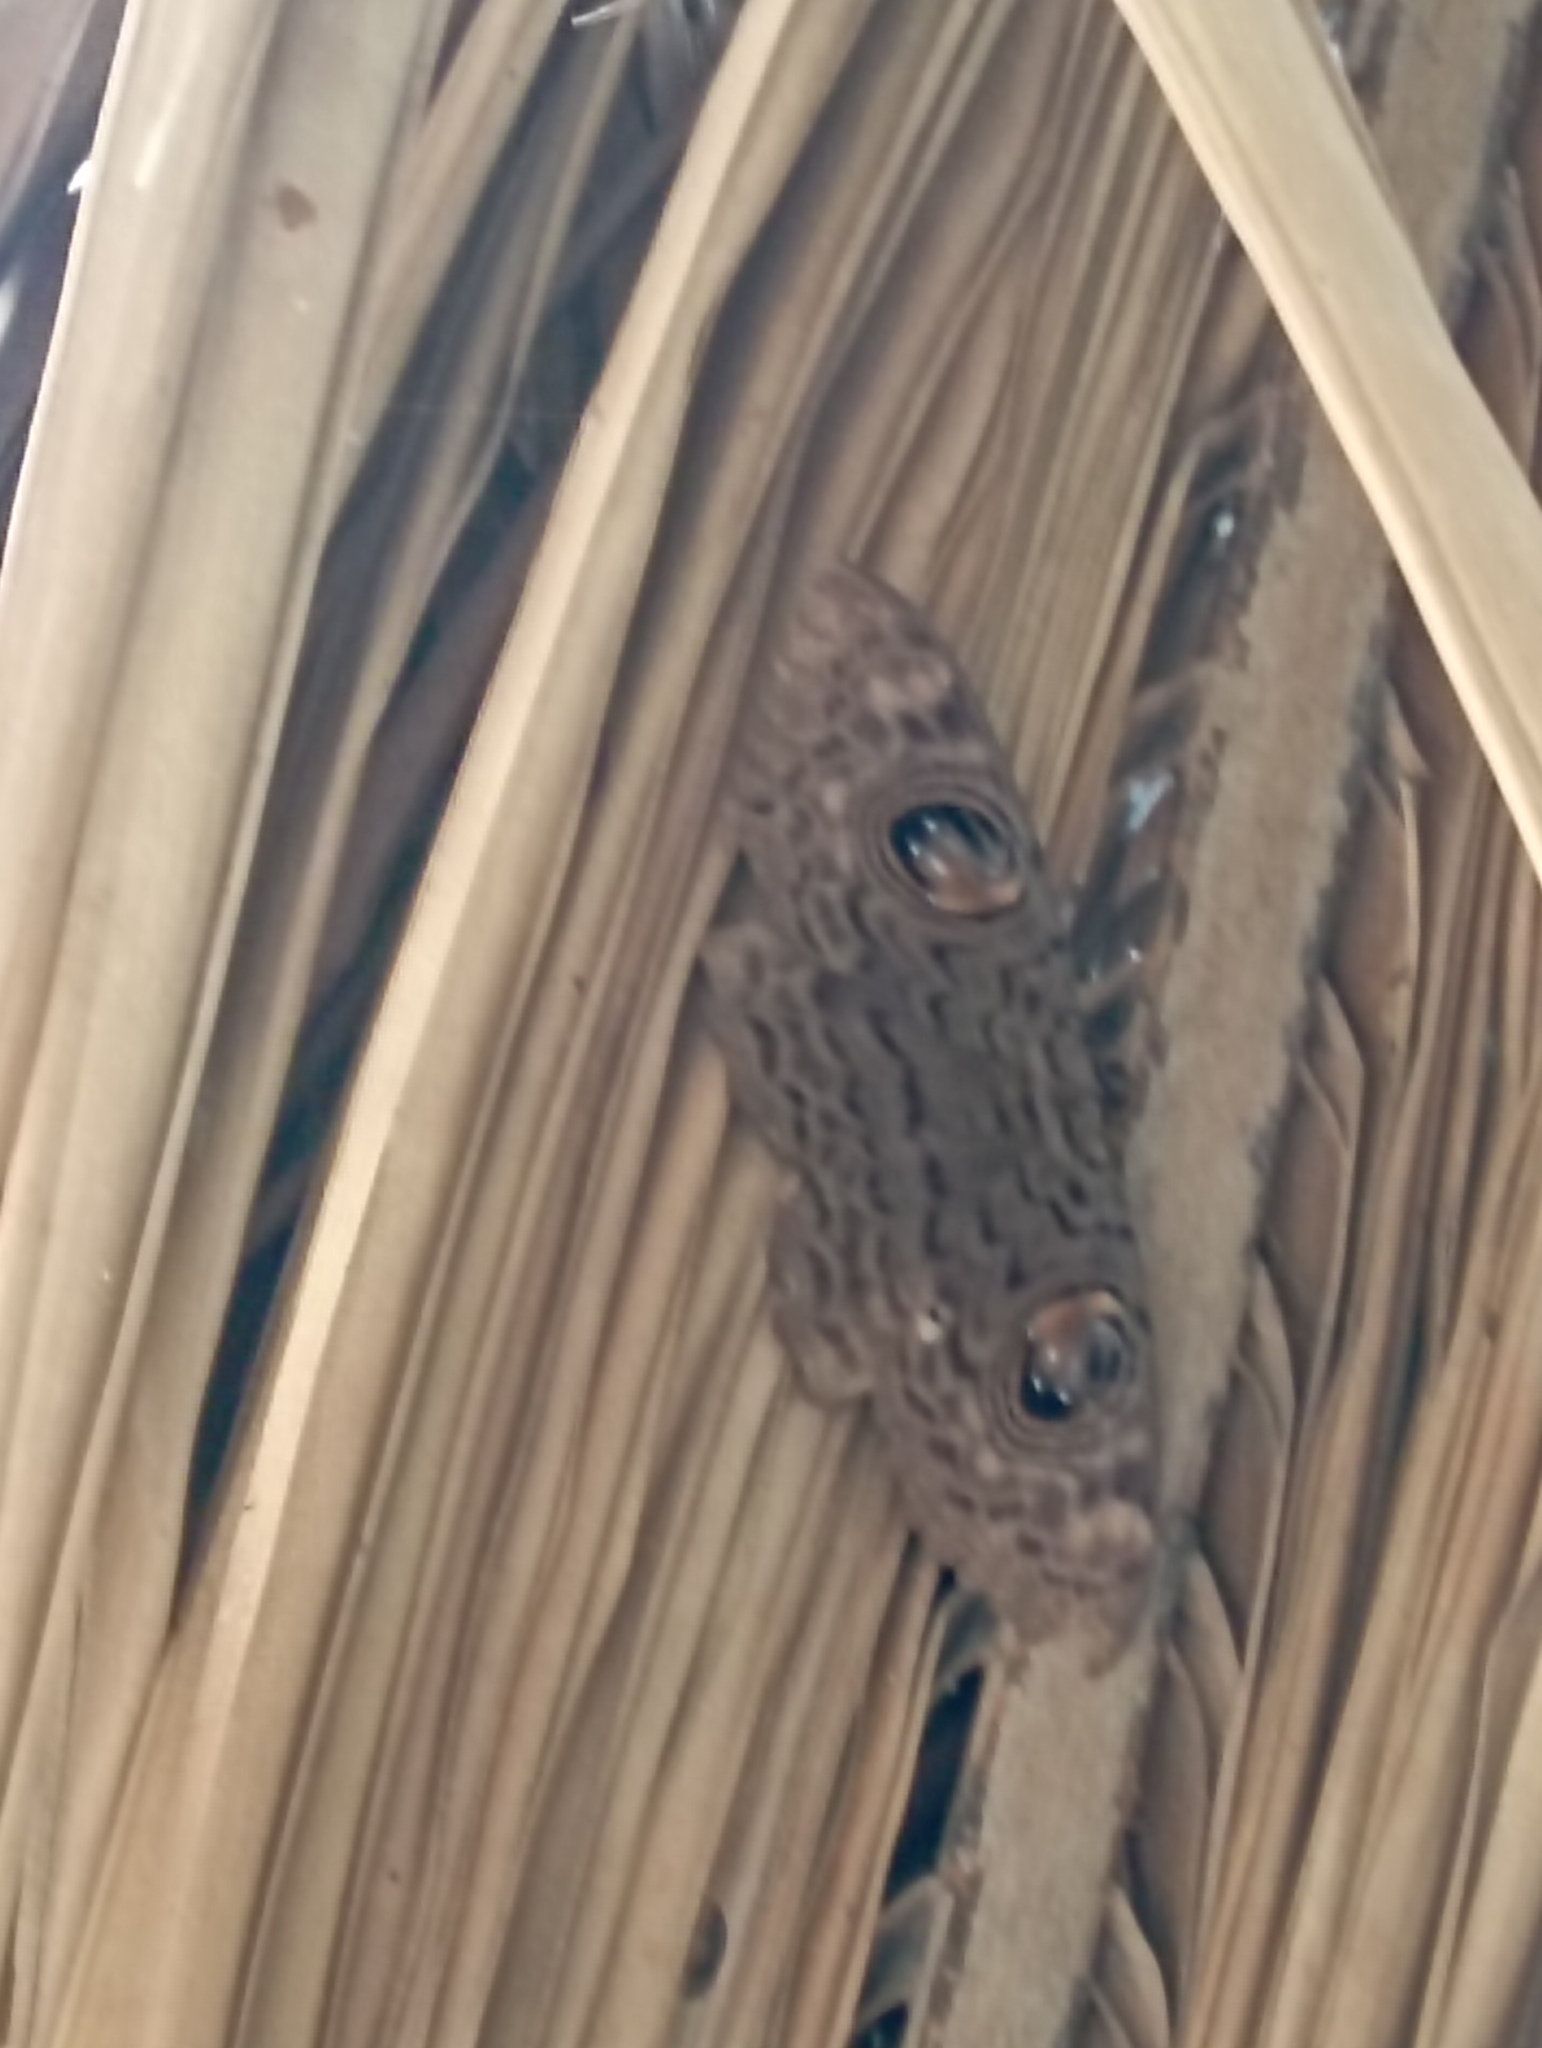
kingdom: Animalia
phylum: Arthropoda
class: Insecta
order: Lepidoptera
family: Erebidae
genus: Erebus
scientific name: Erebus macrops
